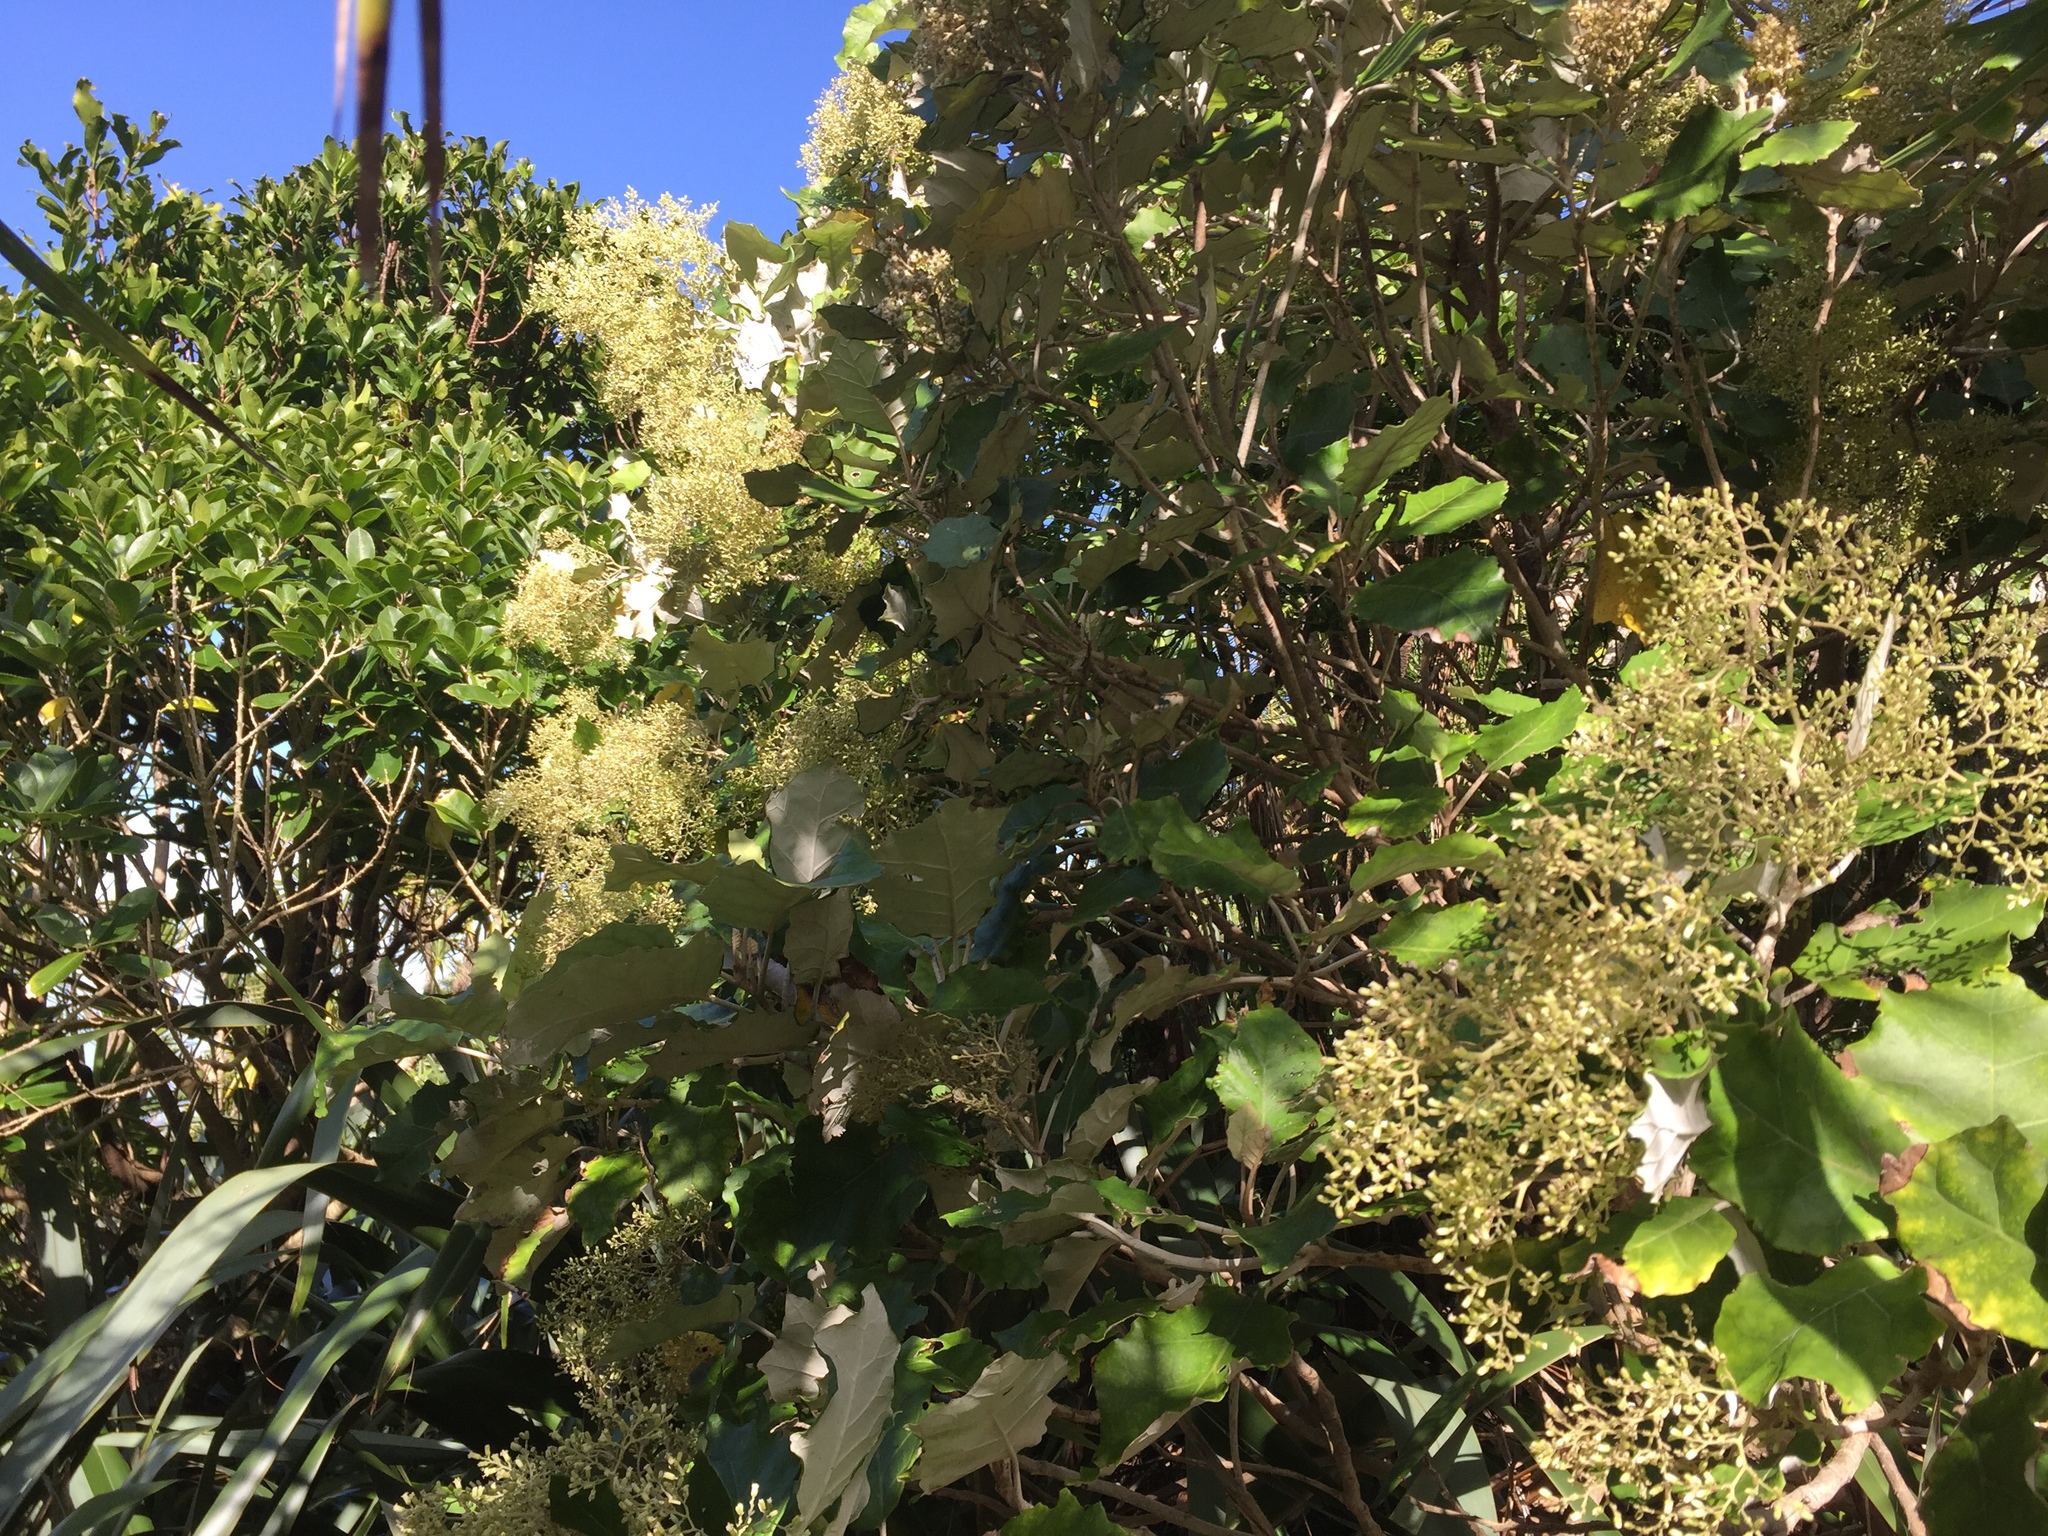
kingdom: Plantae
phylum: Tracheophyta
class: Magnoliopsida
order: Asterales
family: Asteraceae
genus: Brachyglottis
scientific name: Brachyglottis repanda
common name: Hedge ragwort
